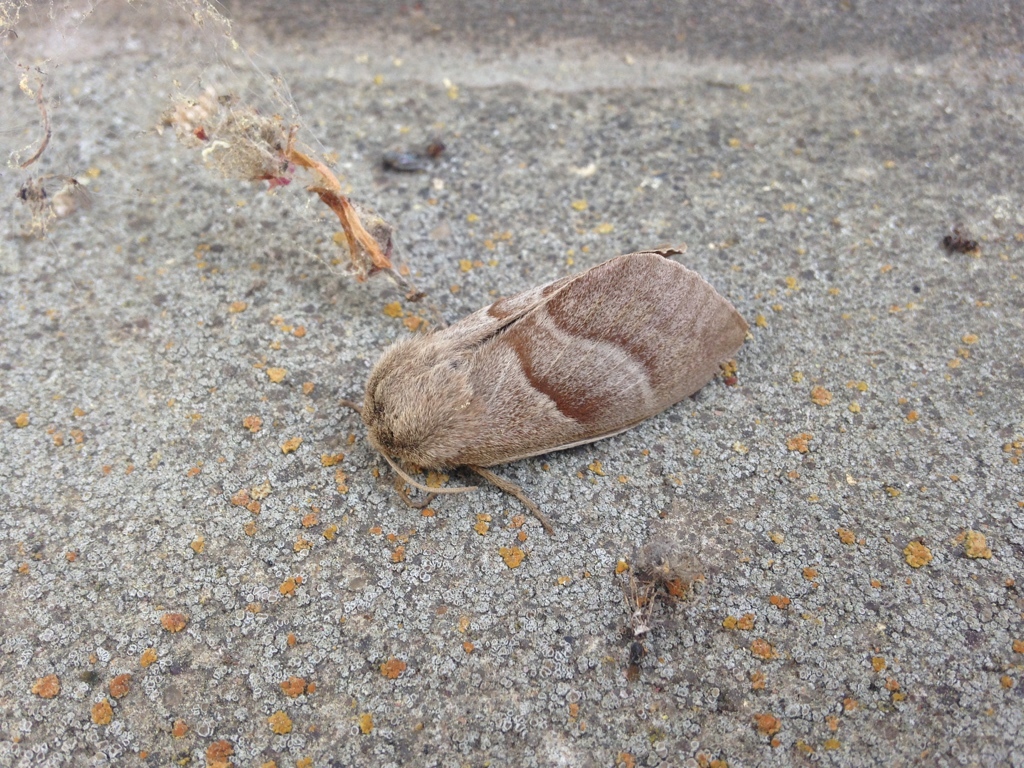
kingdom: Animalia
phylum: Arthropoda
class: Insecta
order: Lepidoptera
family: Lasiocampidae
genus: Macrothylacia
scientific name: Macrothylacia rubi
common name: Fox moth
